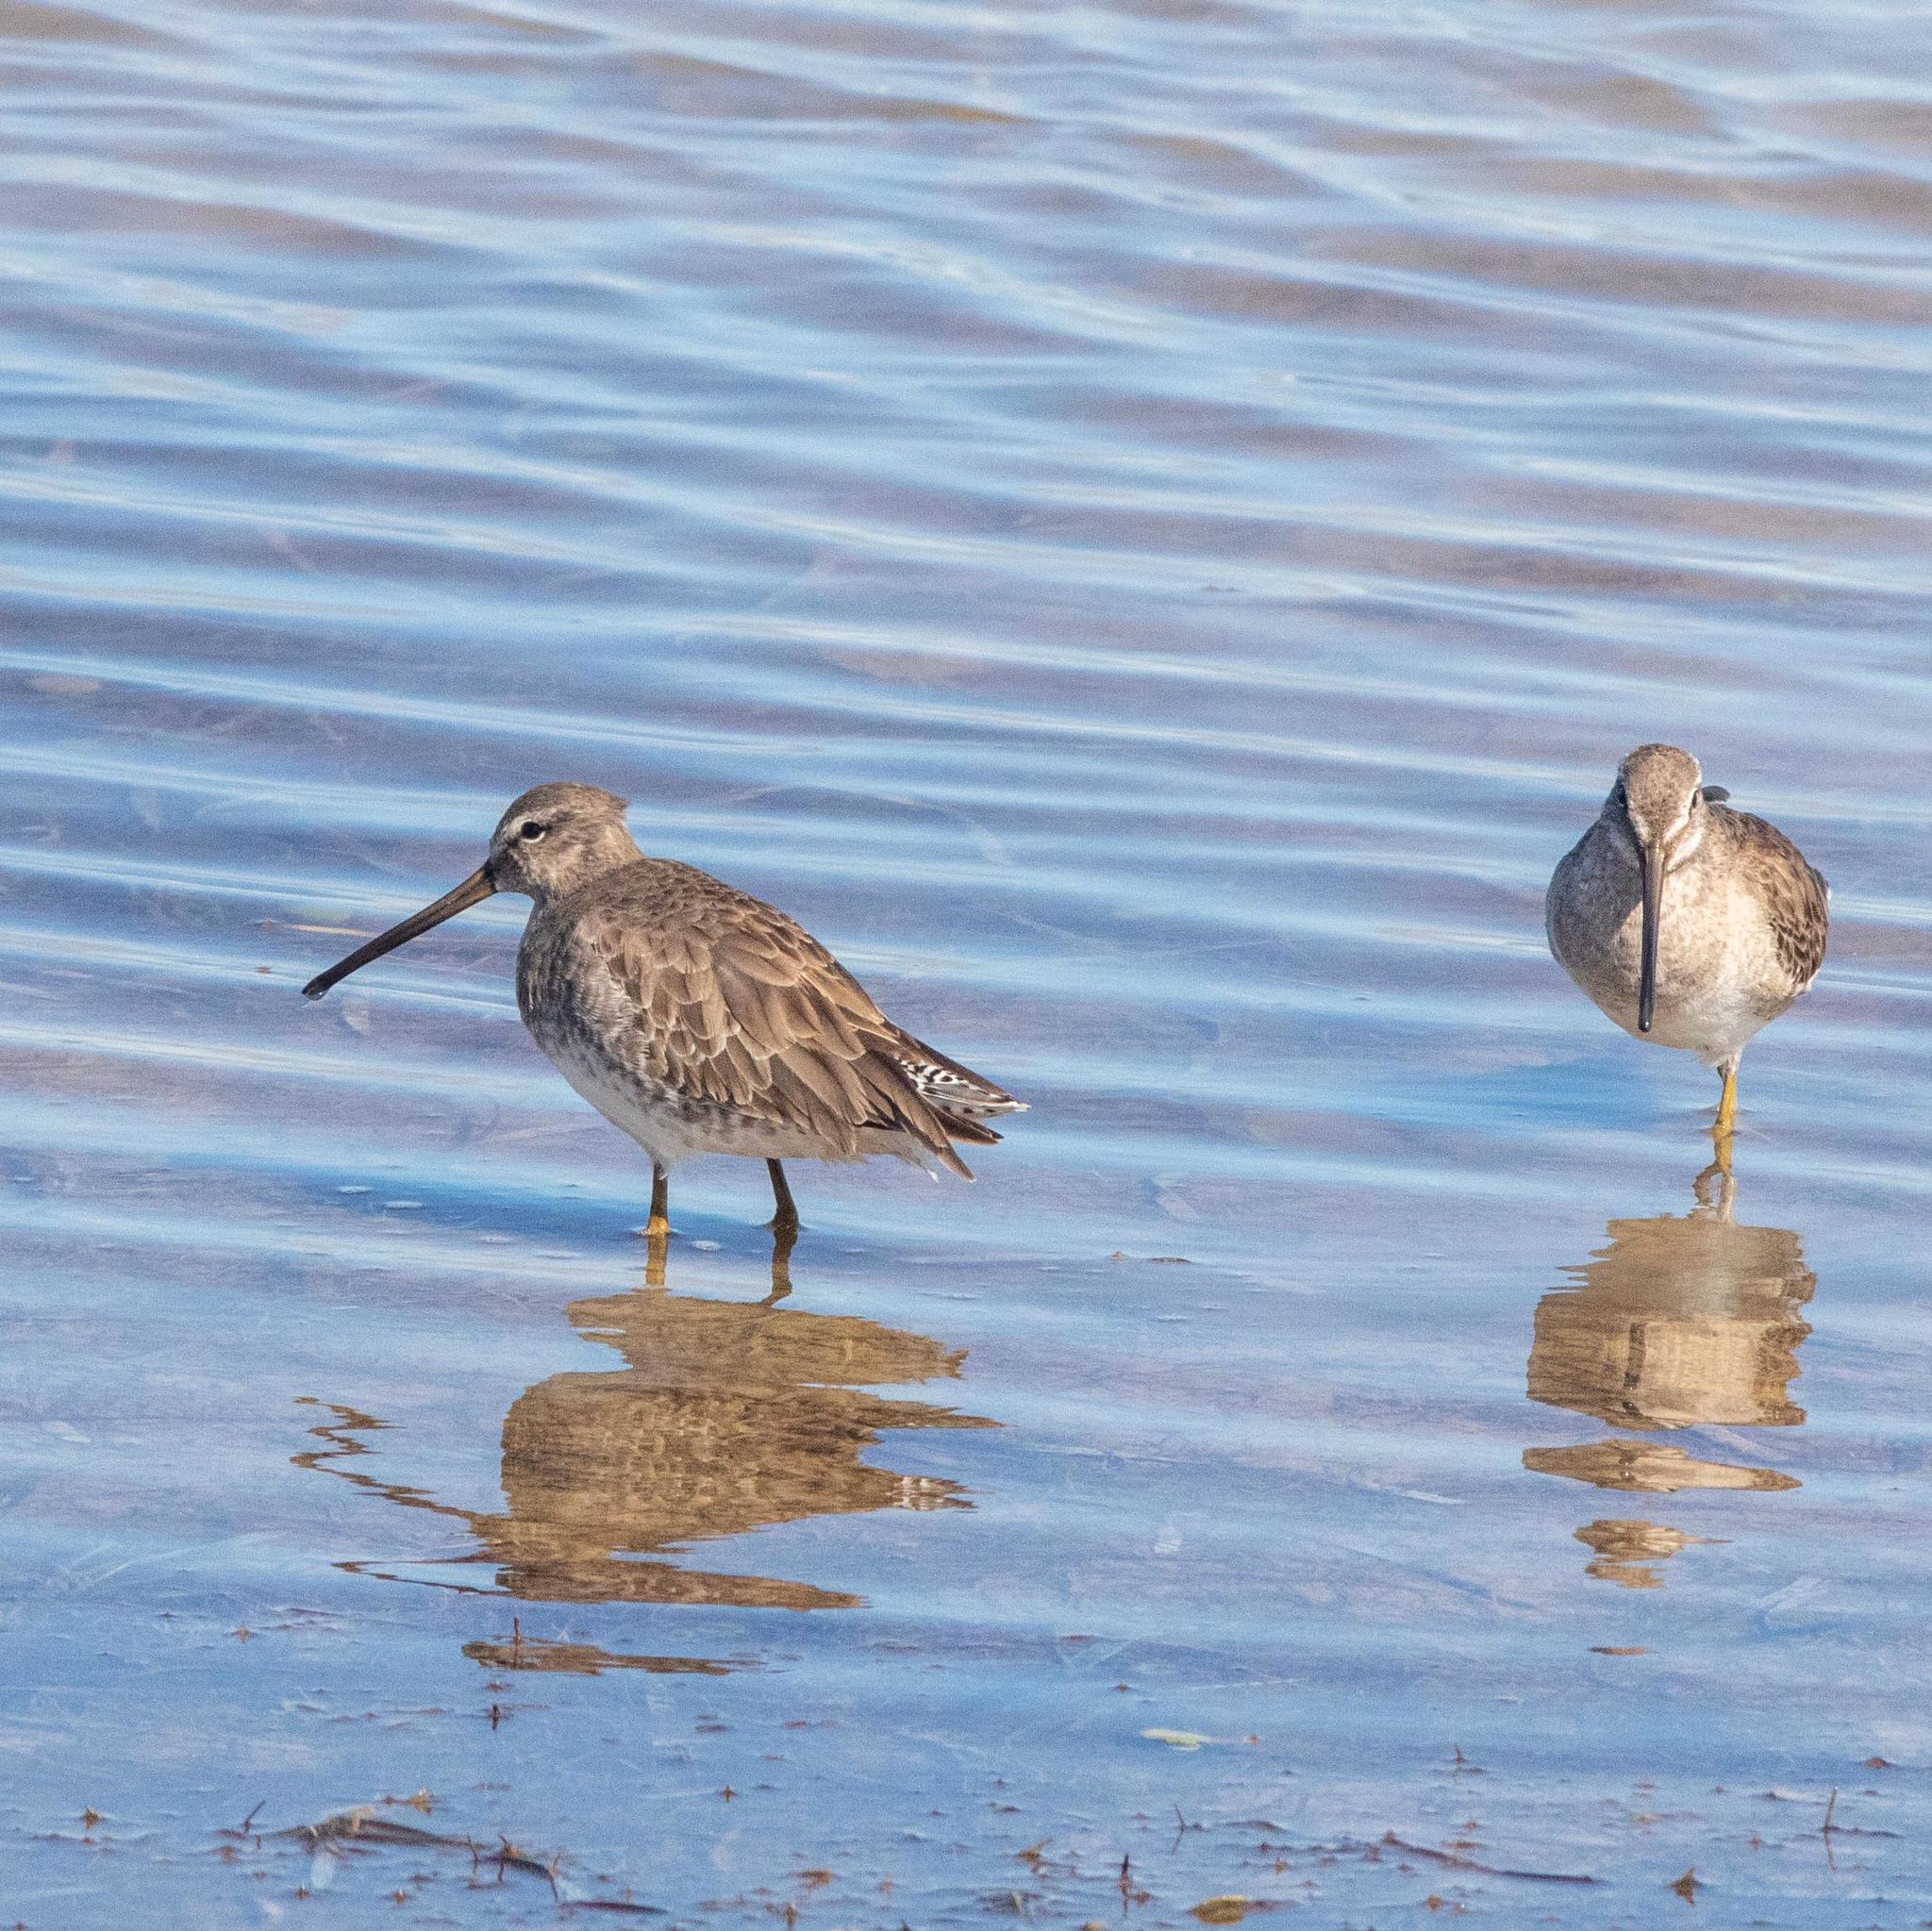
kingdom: Animalia
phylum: Chordata
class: Aves
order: Charadriiformes
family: Scolopacidae
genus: Limnodromus
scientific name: Limnodromus scolopaceus
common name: Long-billed dowitcher
